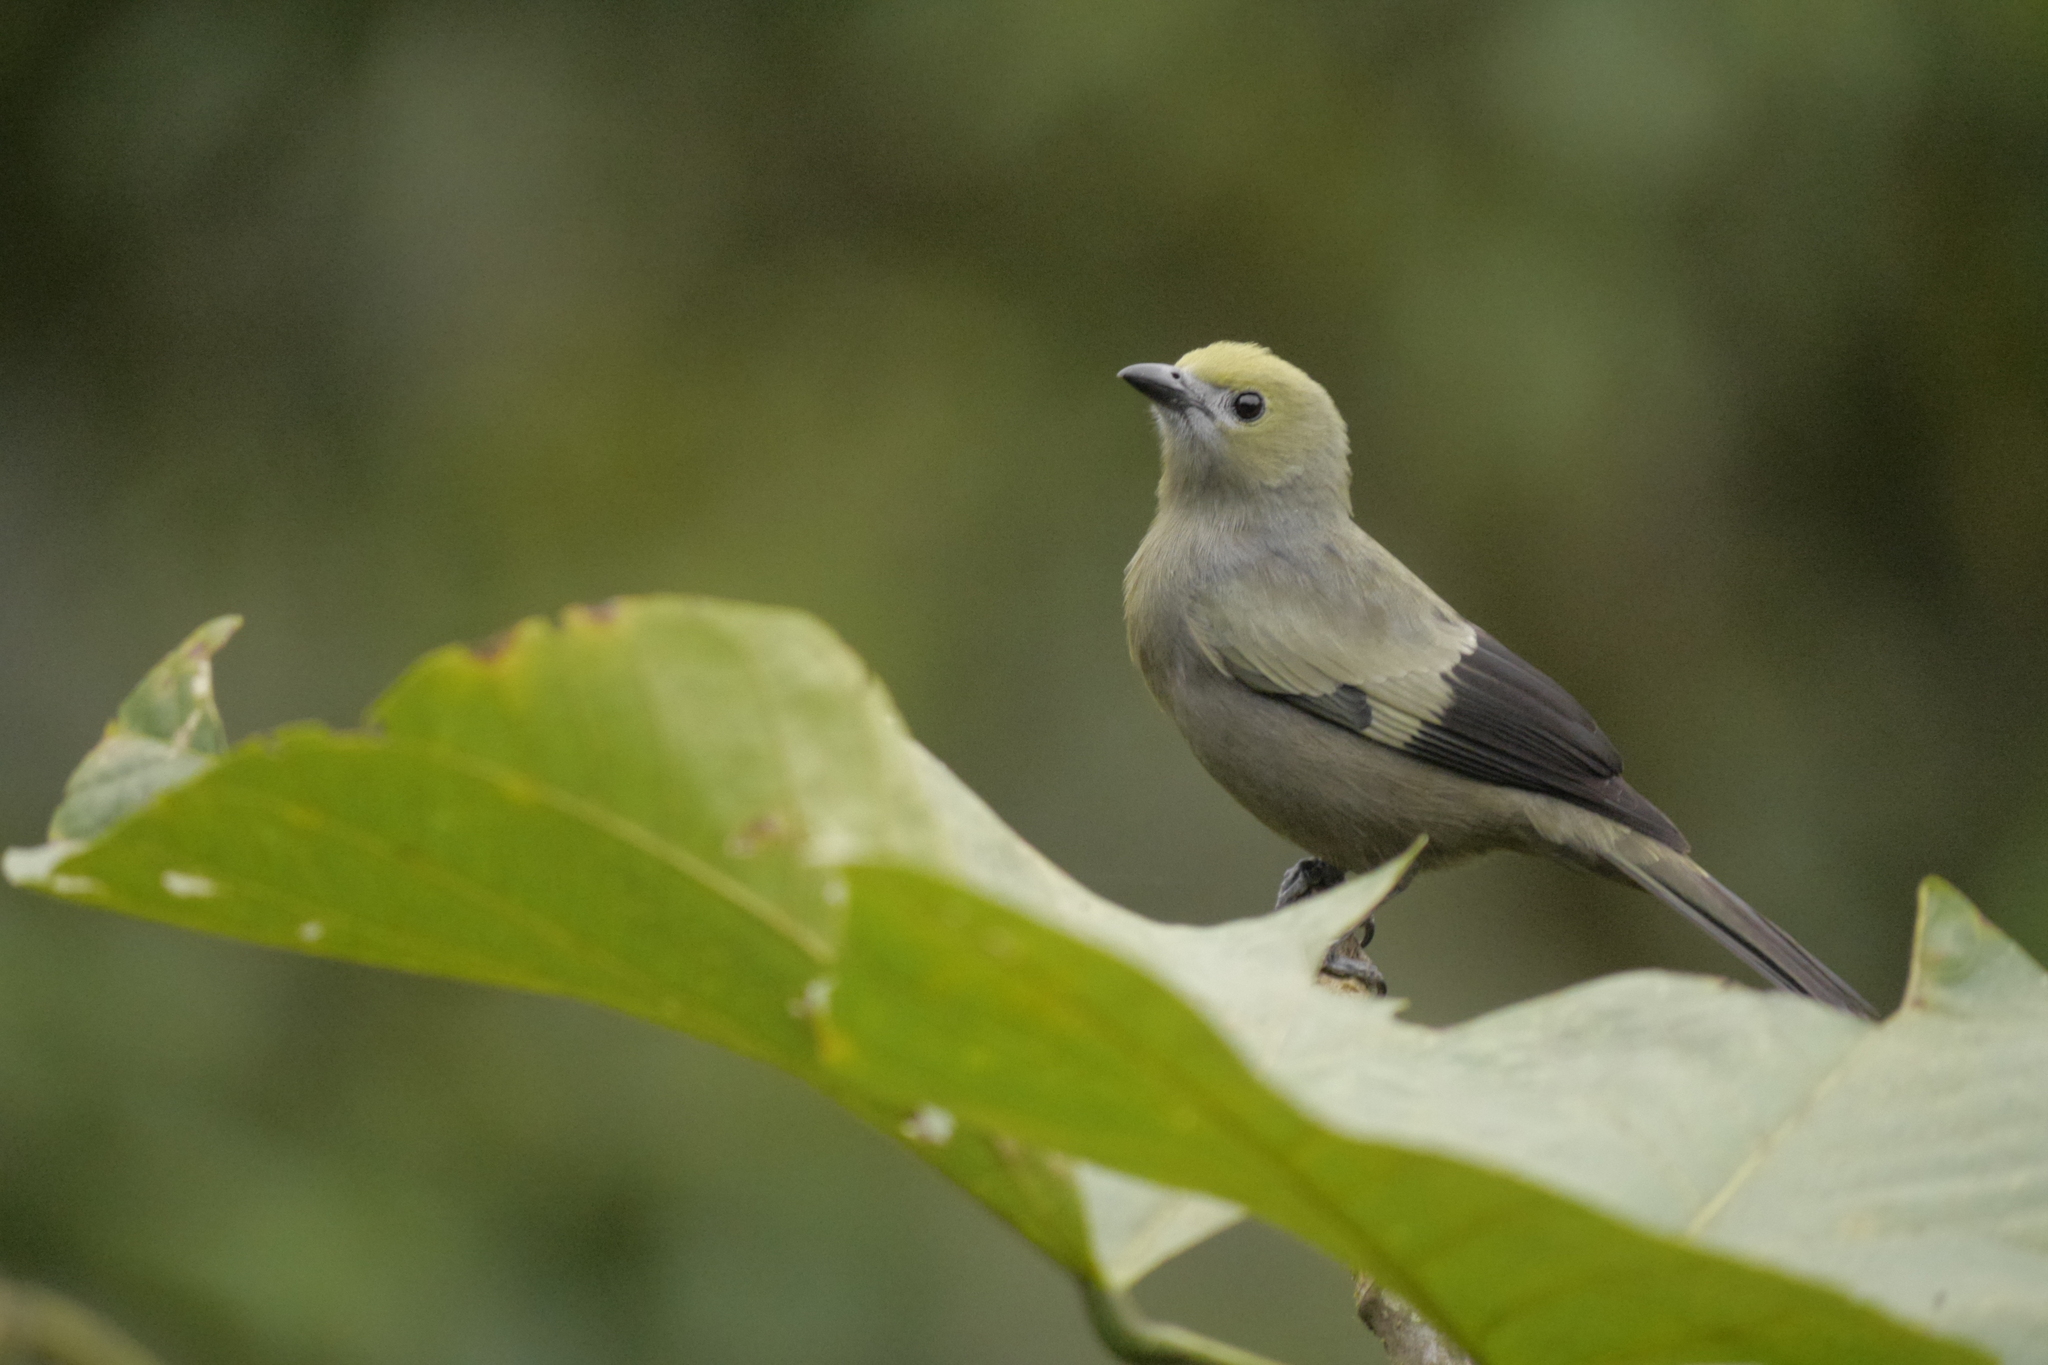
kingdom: Animalia
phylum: Chordata
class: Aves
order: Passeriformes
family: Thraupidae
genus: Thraupis
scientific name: Thraupis palmarum
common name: Palm tanager
